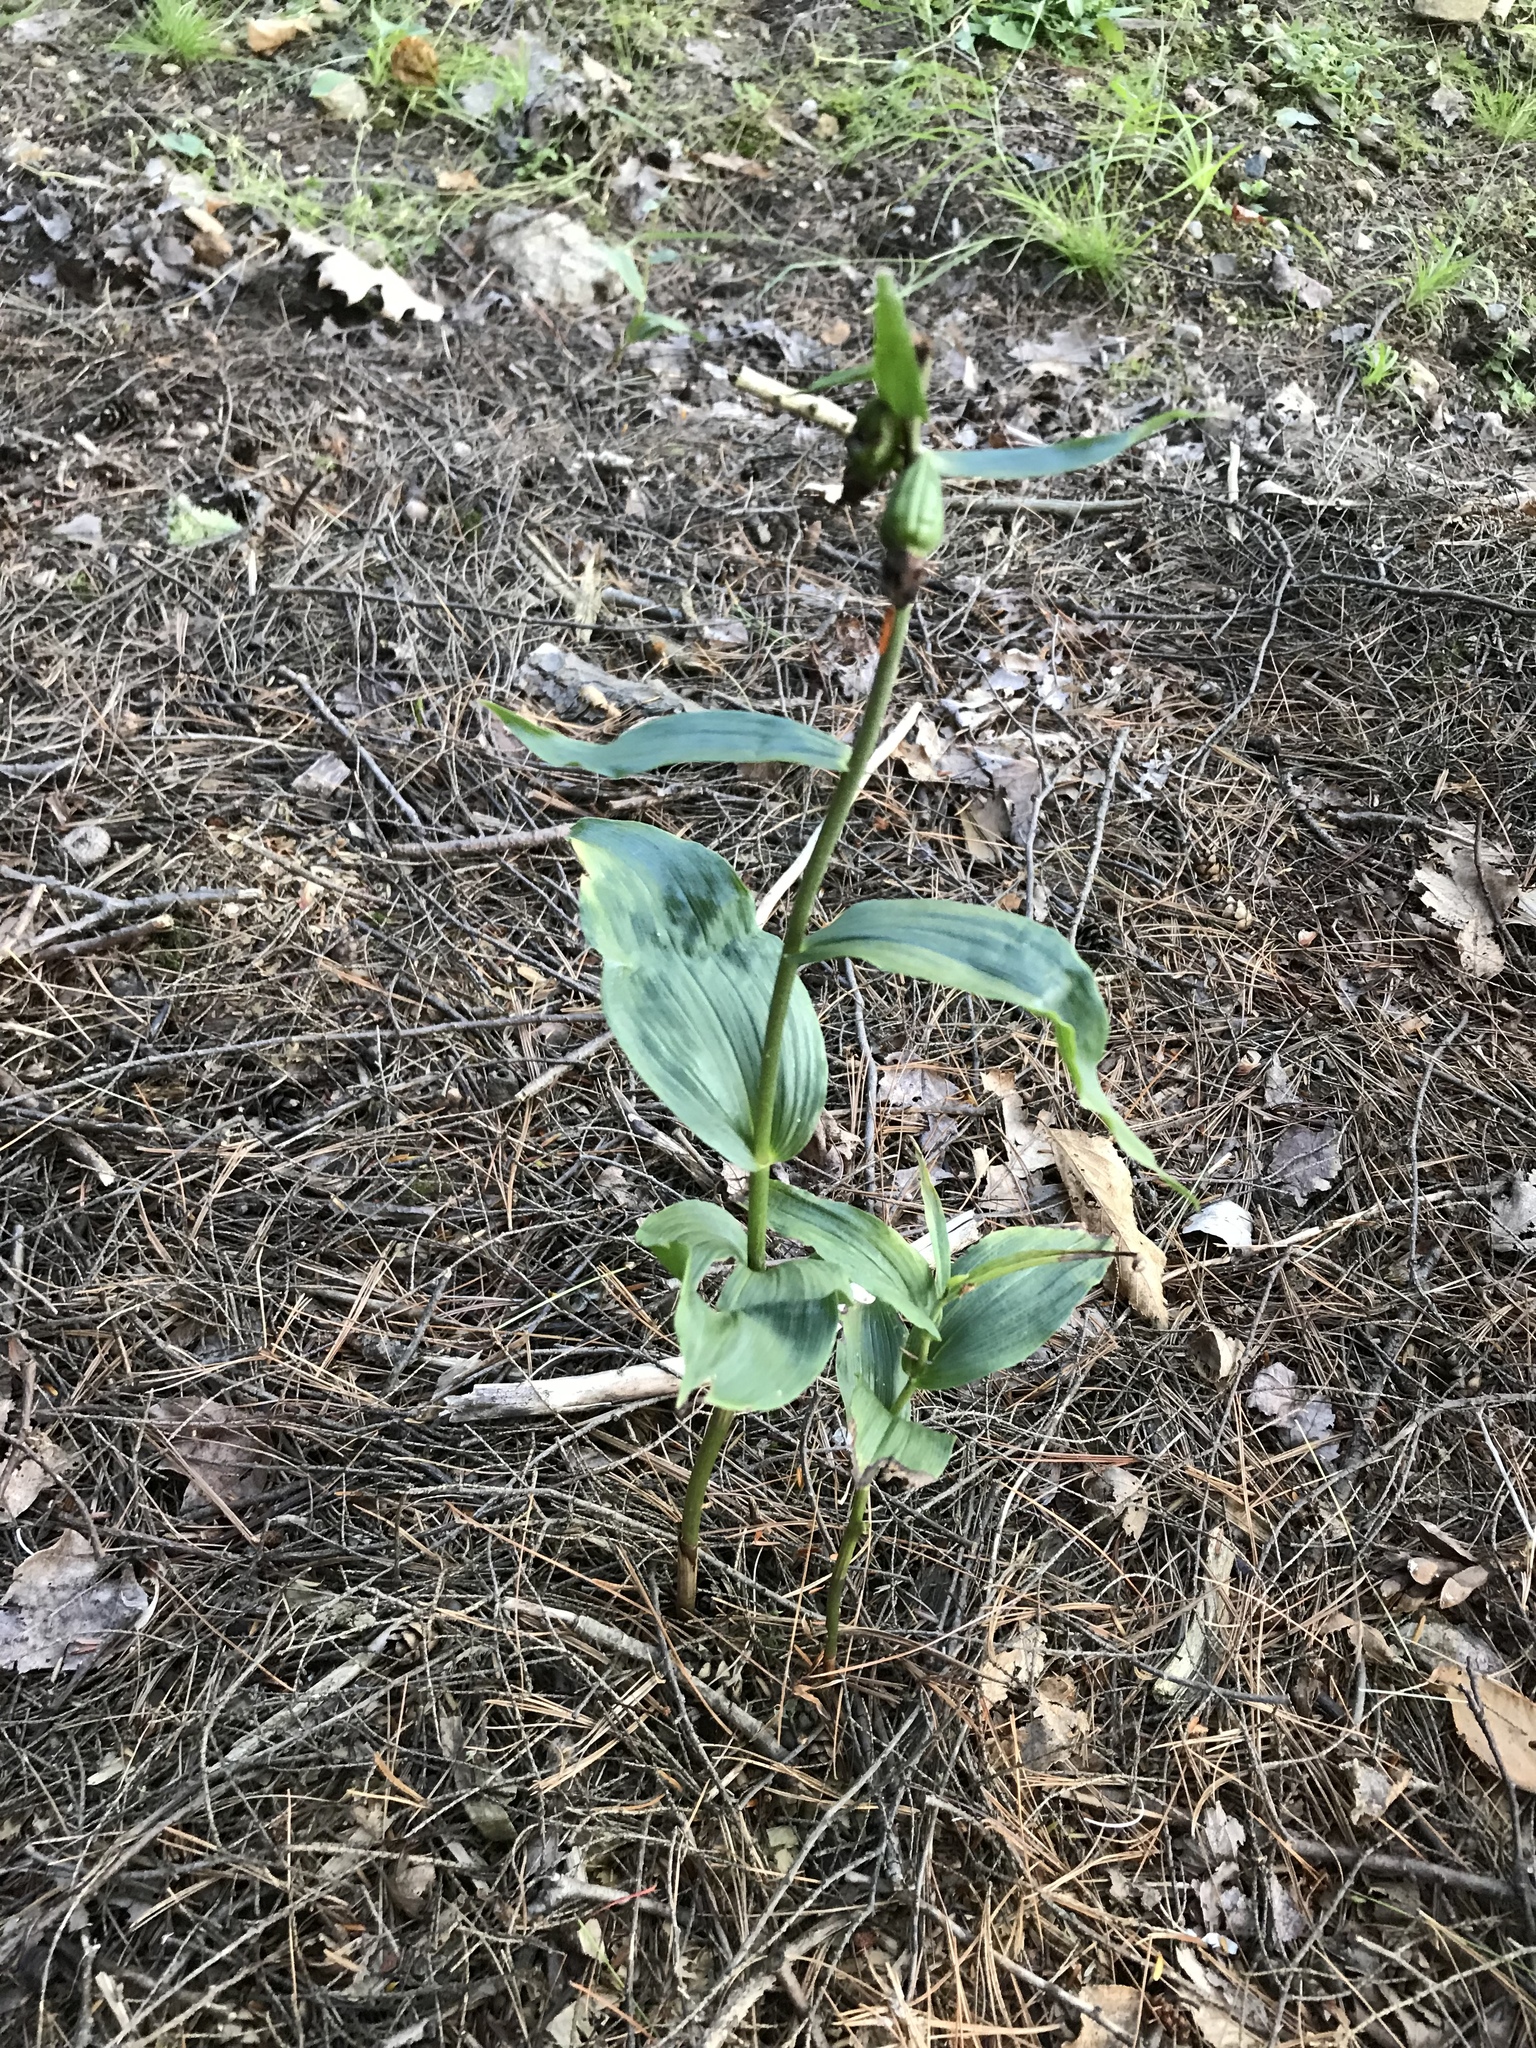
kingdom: Plantae
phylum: Tracheophyta
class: Liliopsida
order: Asparagales
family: Orchidaceae
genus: Epipactis
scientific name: Epipactis helleborine
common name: Broad-leaved helleborine
